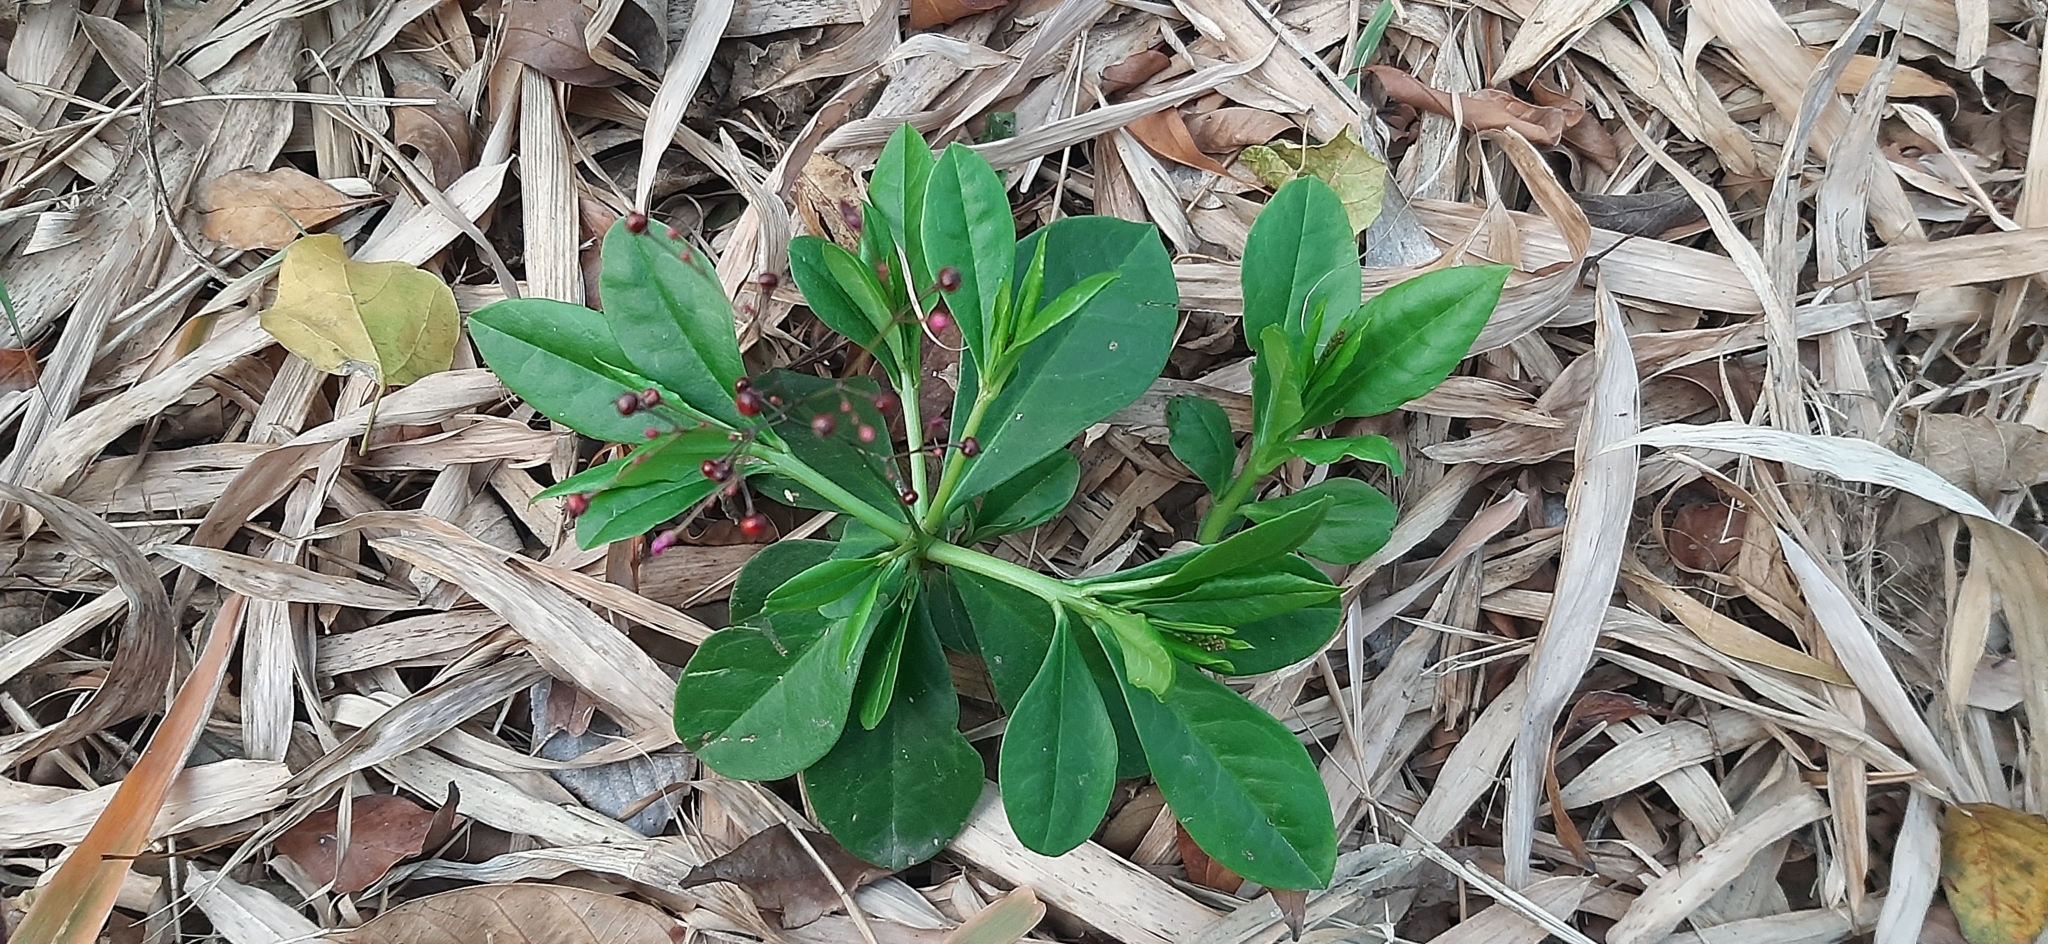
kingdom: Plantae
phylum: Tracheophyta
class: Magnoliopsida
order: Caryophyllales
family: Talinaceae
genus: Talinum
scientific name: Talinum paniculatum
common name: Jewels of opar
